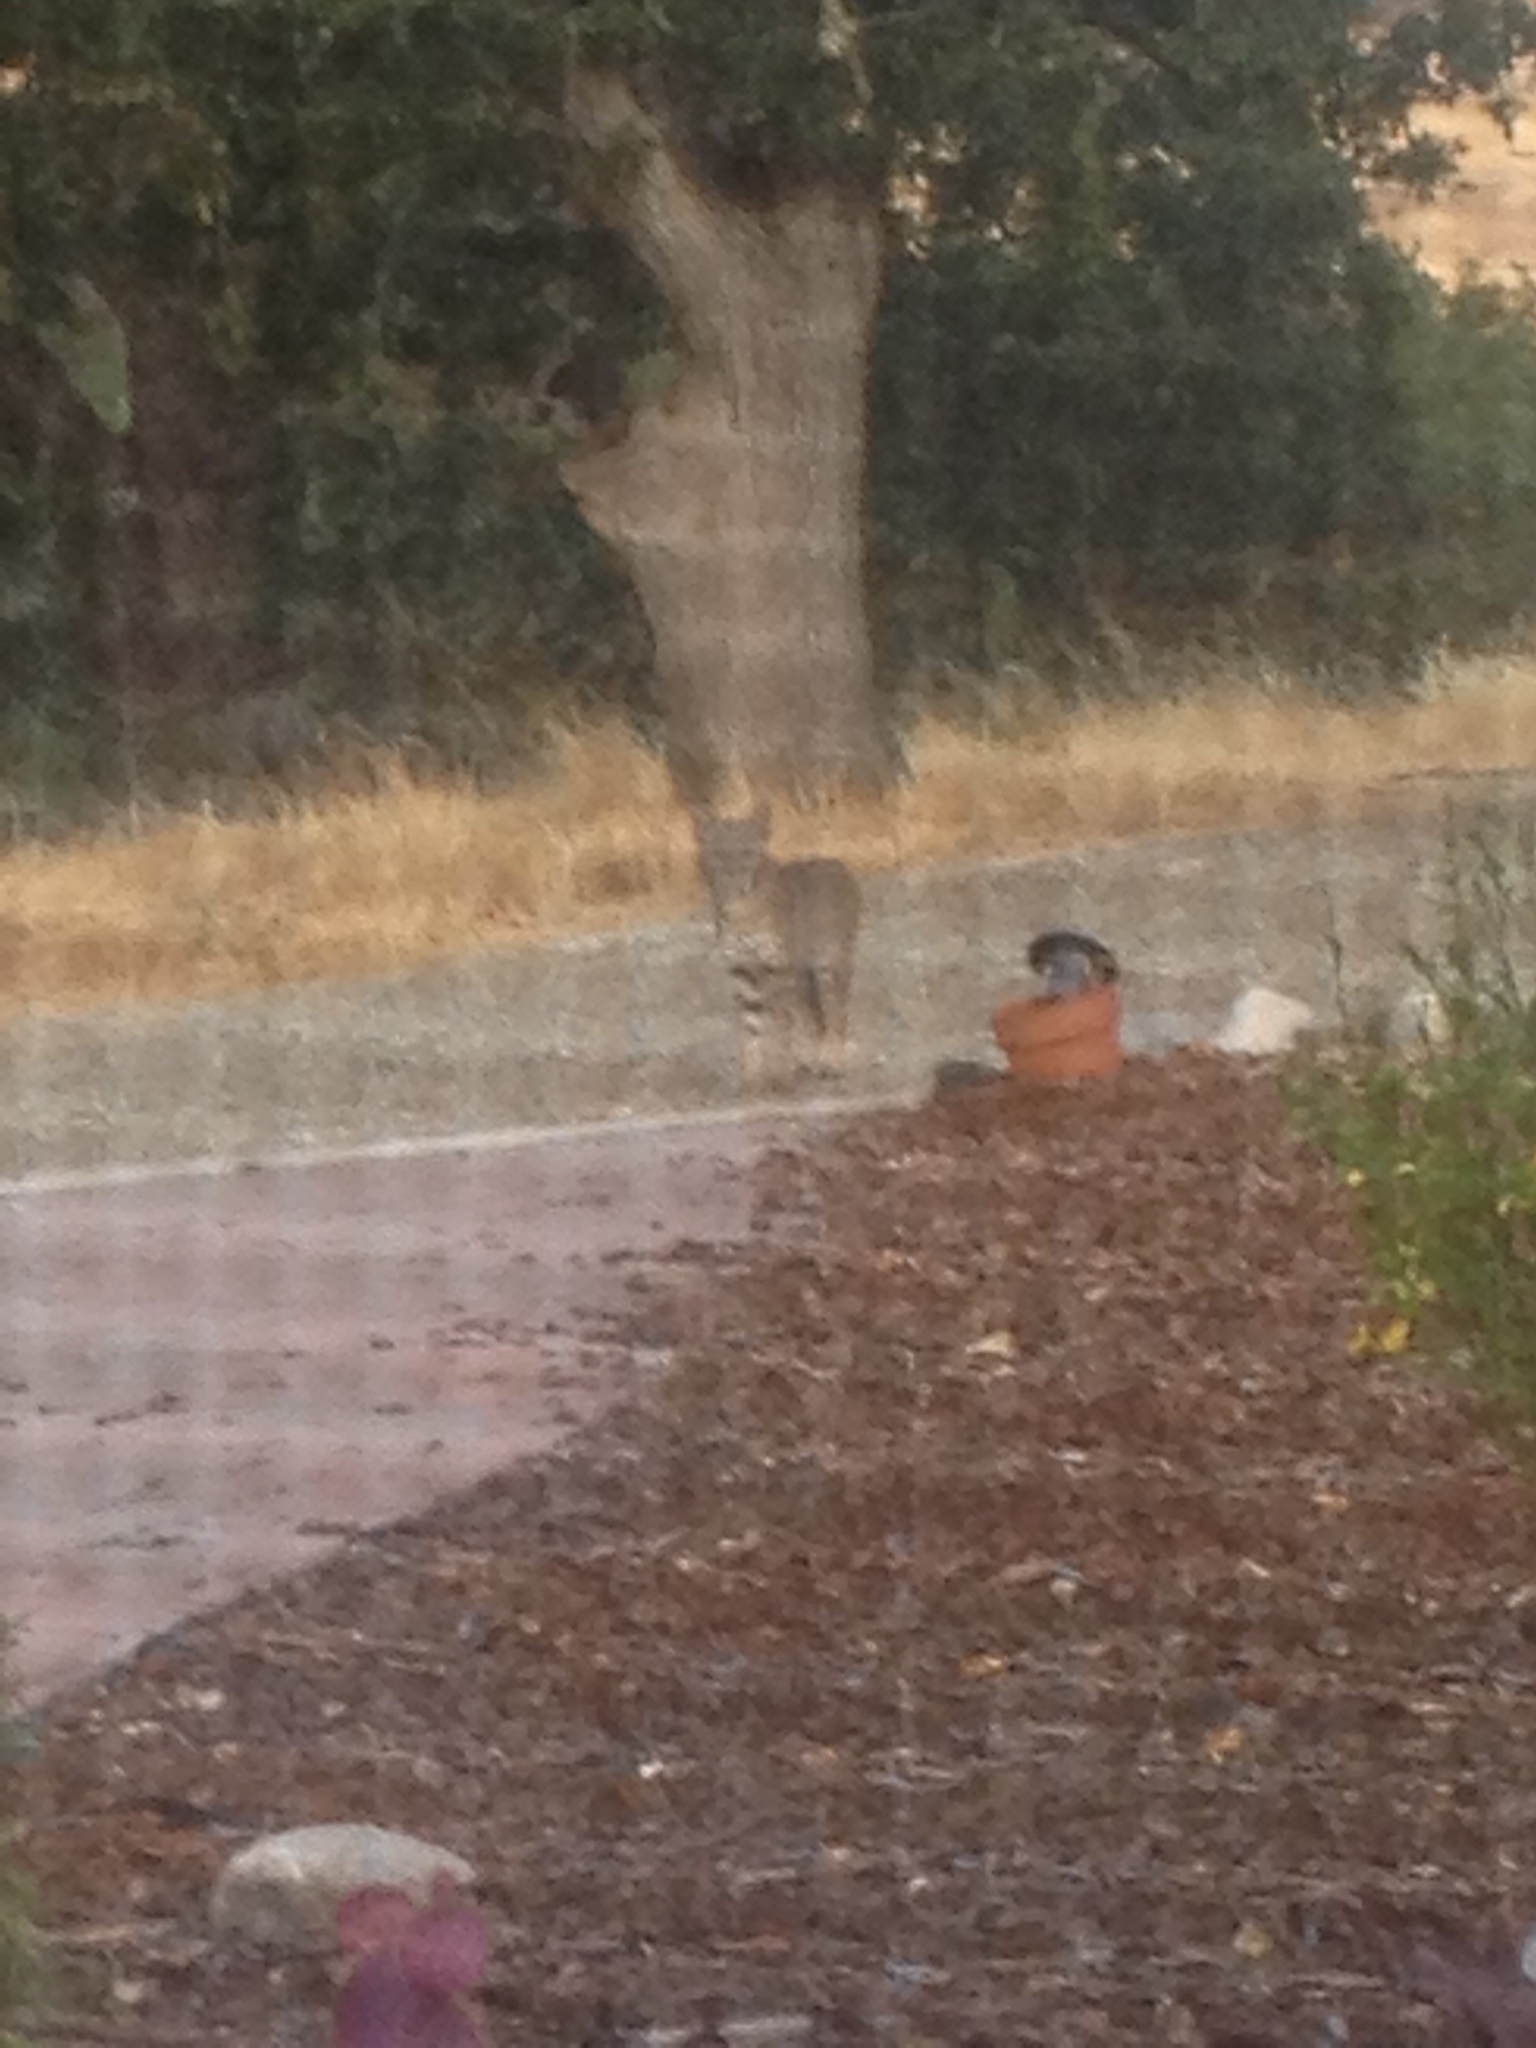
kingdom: Animalia
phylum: Chordata
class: Mammalia
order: Carnivora
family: Felidae
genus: Lynx
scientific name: Lynx rufus
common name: Bobcat
